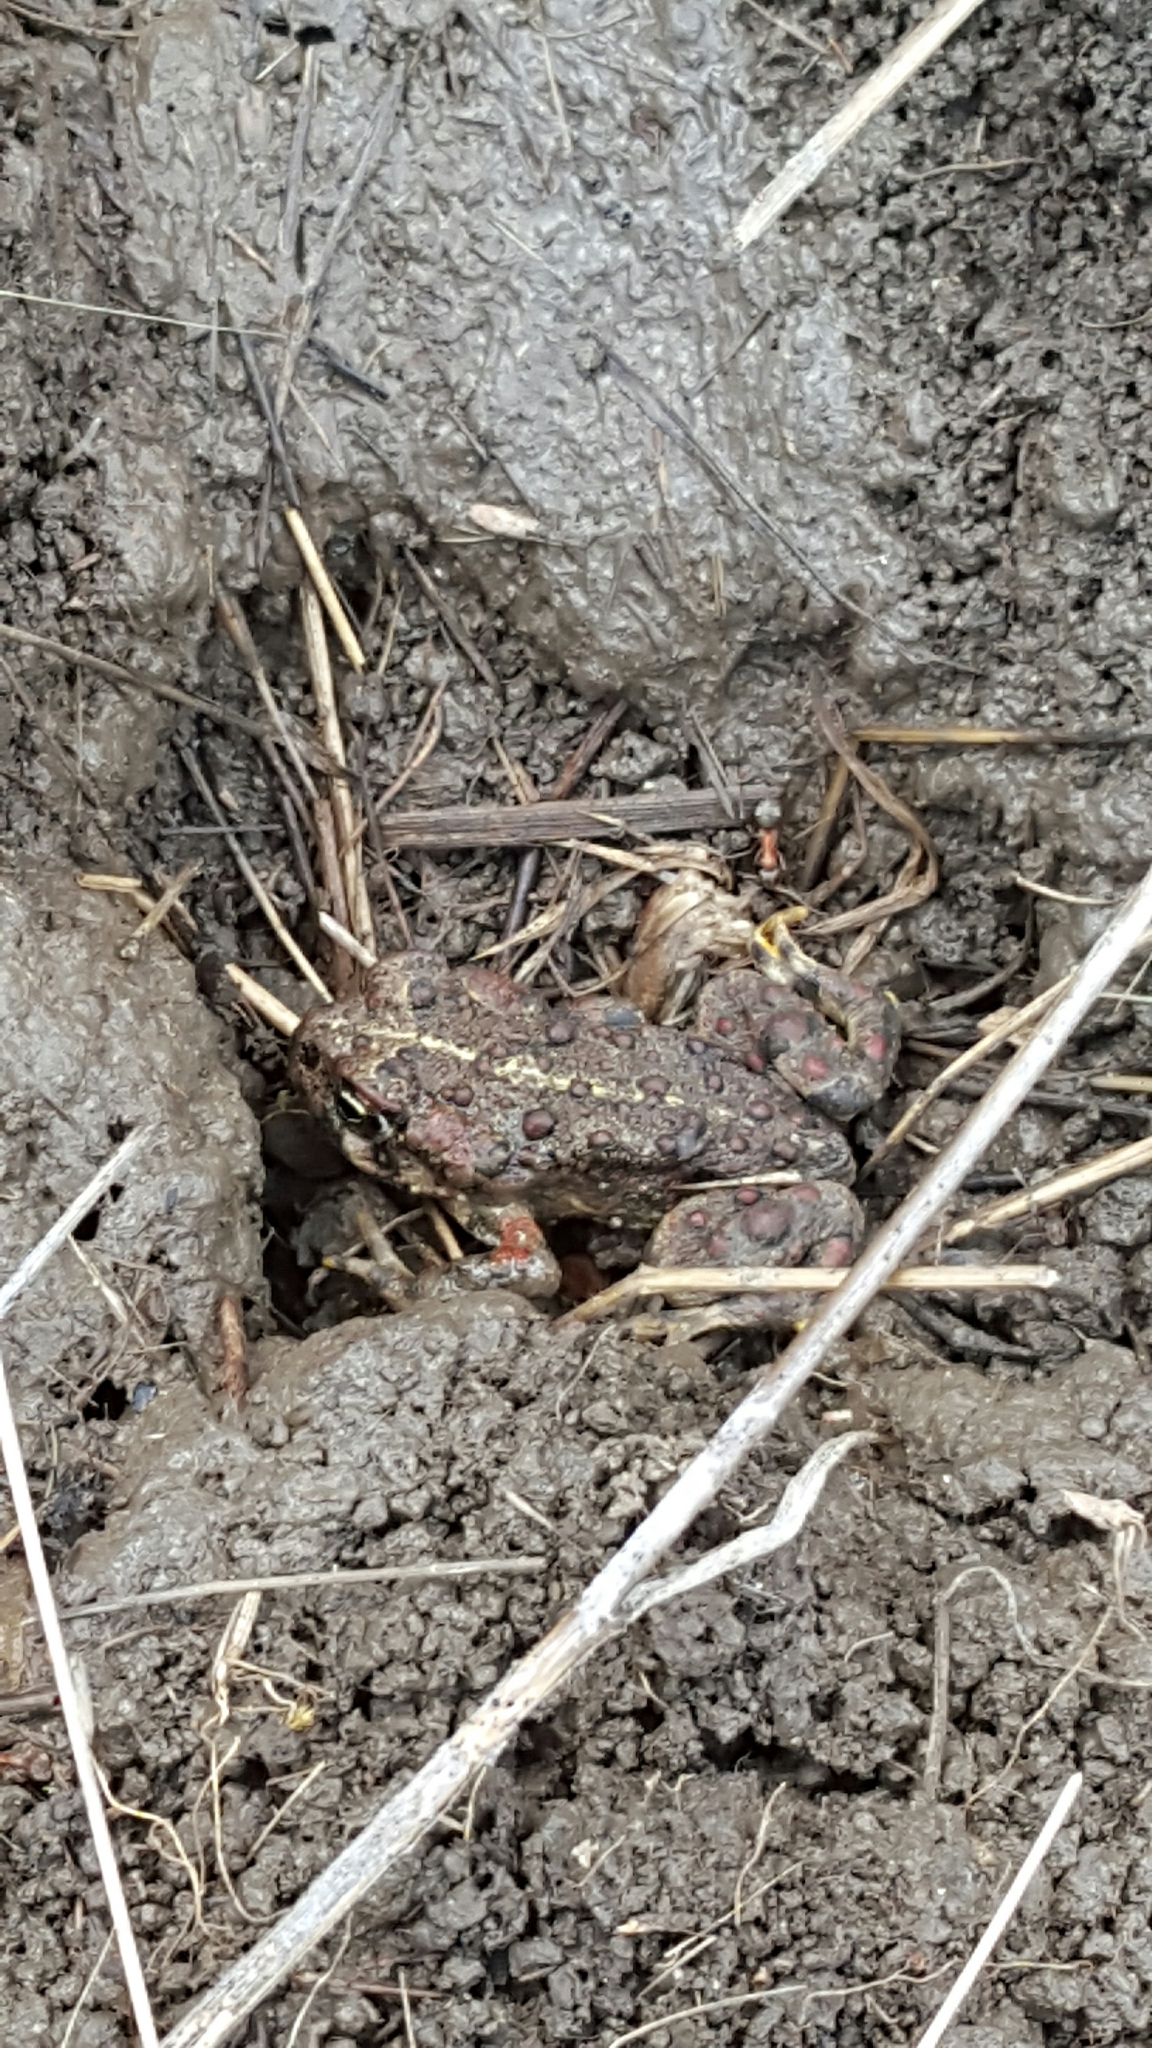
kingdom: Animalia
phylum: Chordata
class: Amphibia
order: Anura
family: Bufonidae
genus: Anaxyrus
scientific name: Anaxyrus boreas
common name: Western toad
